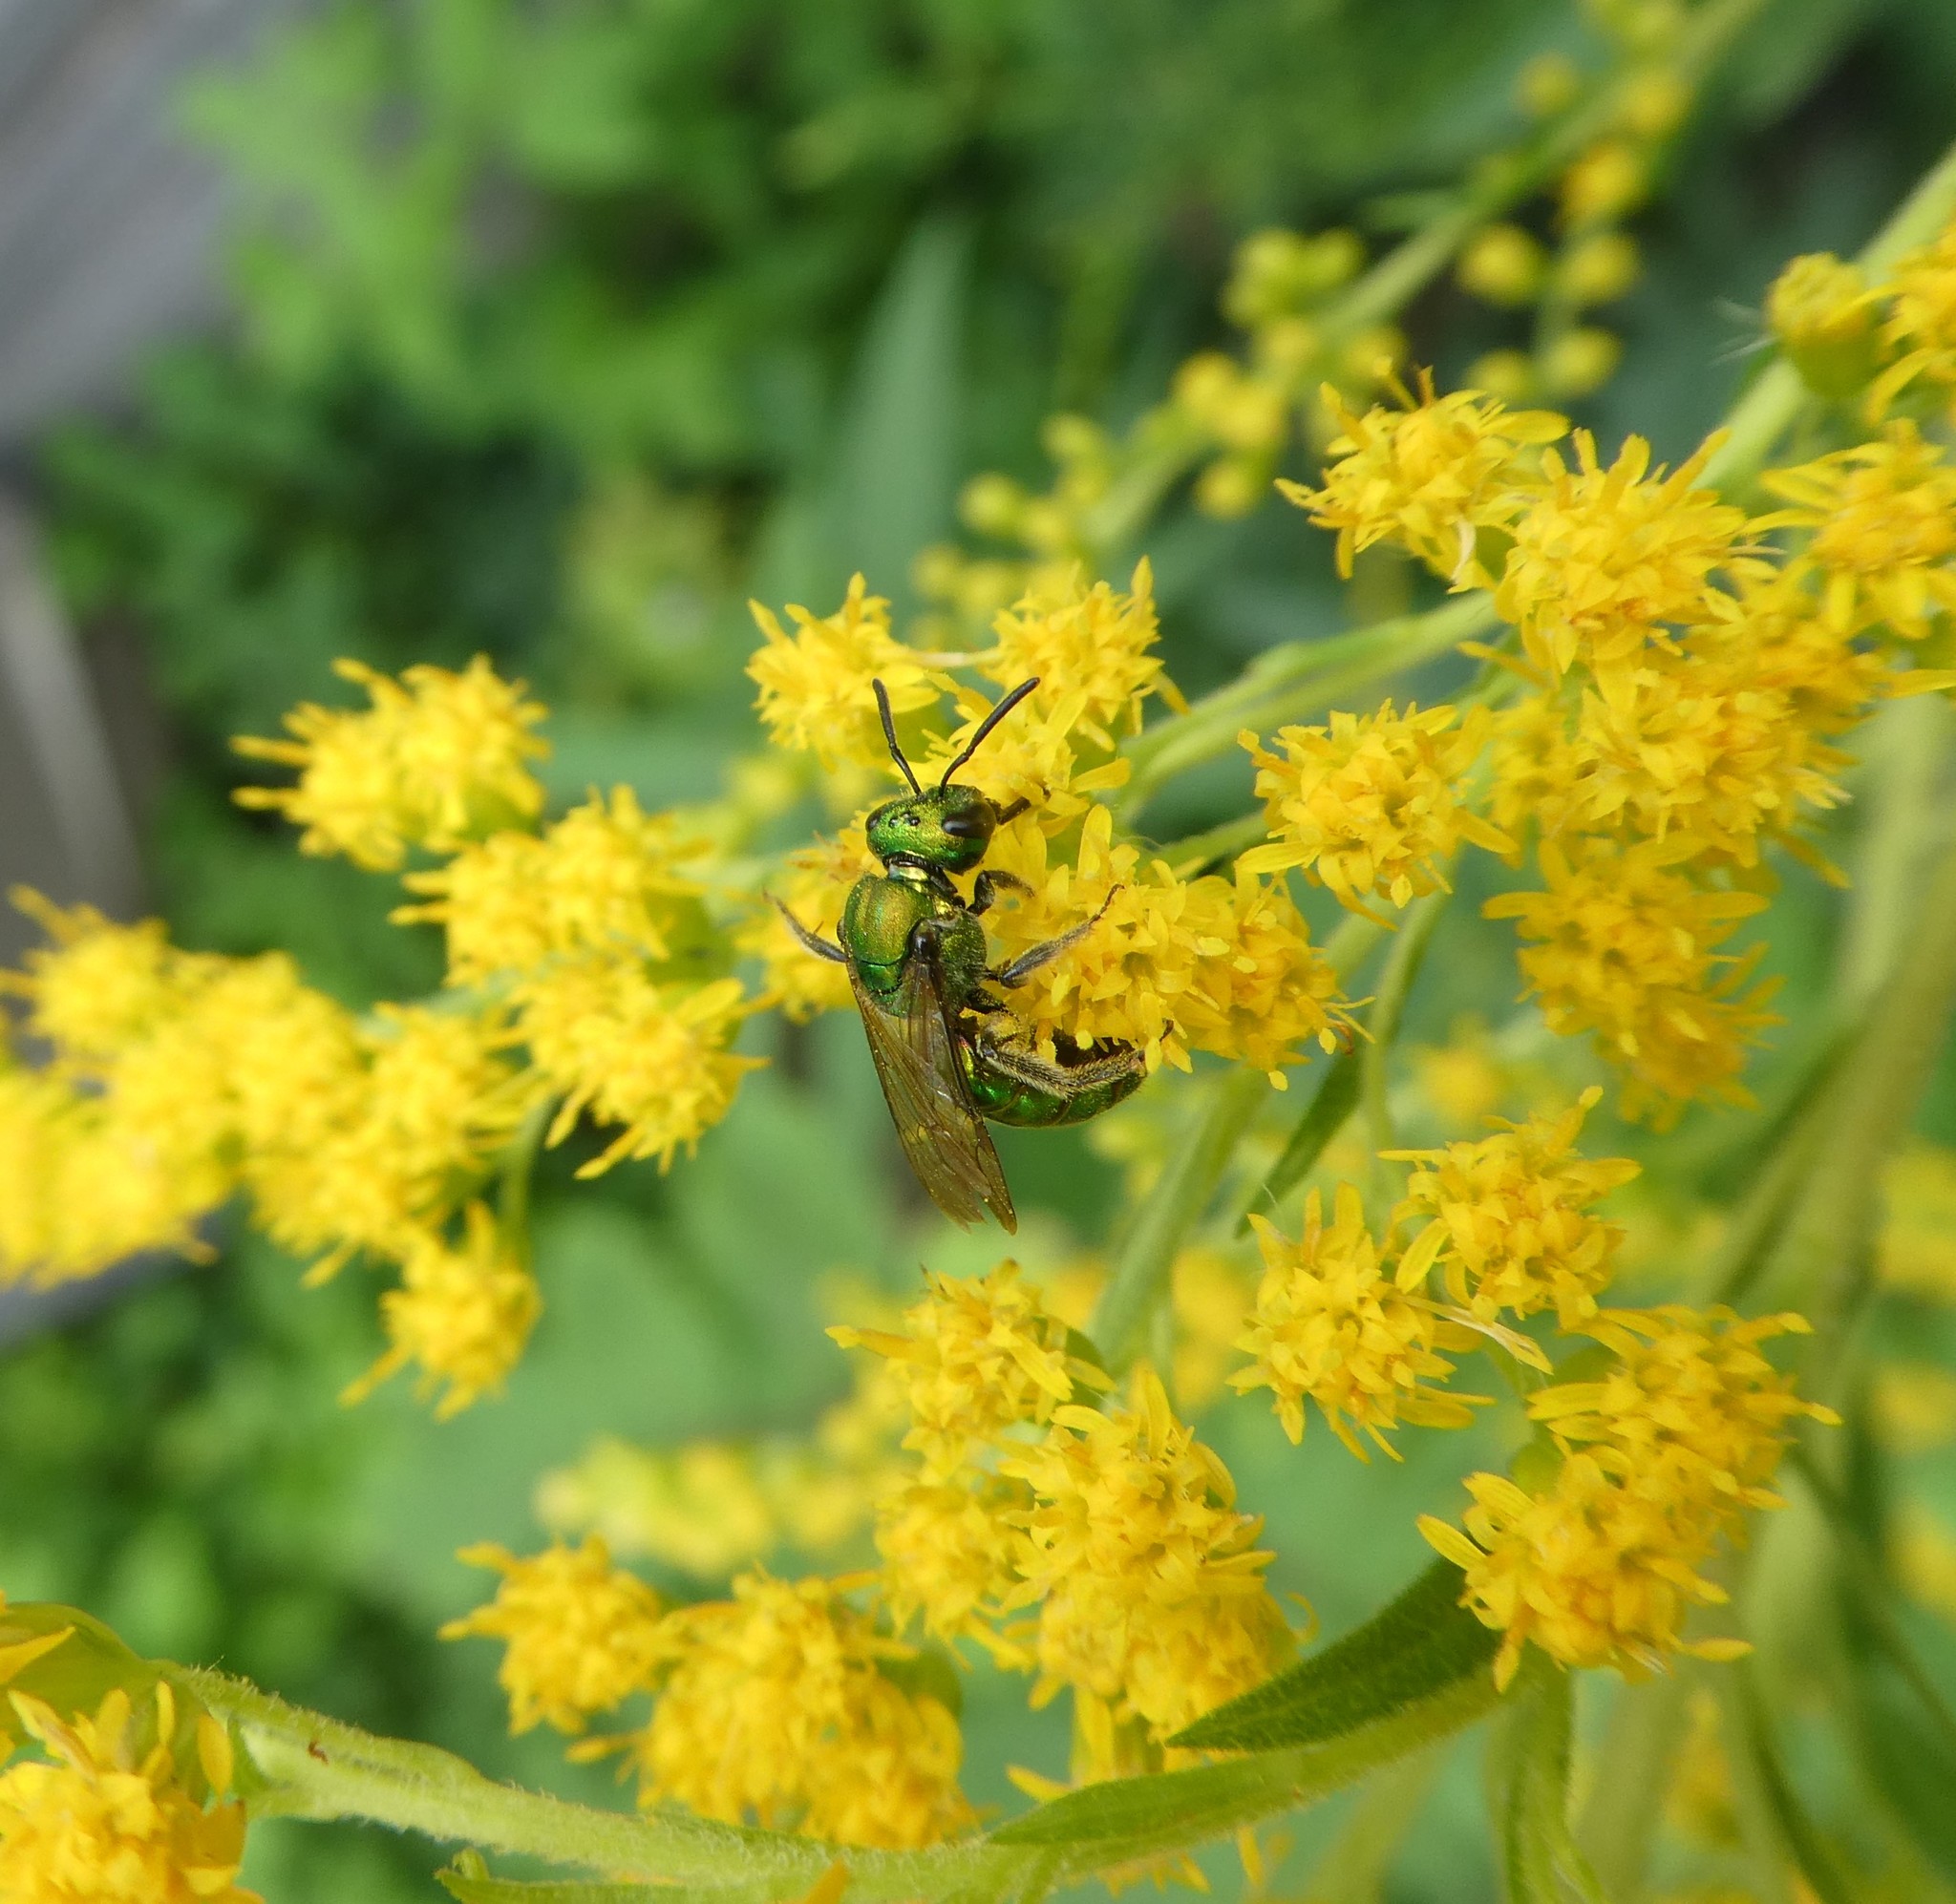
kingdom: Animalia
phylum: Arthropoda
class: Insecta
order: Hymenoptera
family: Halictidae
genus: Augochlora
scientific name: Augochlora pura
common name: Pure green sweat bee
